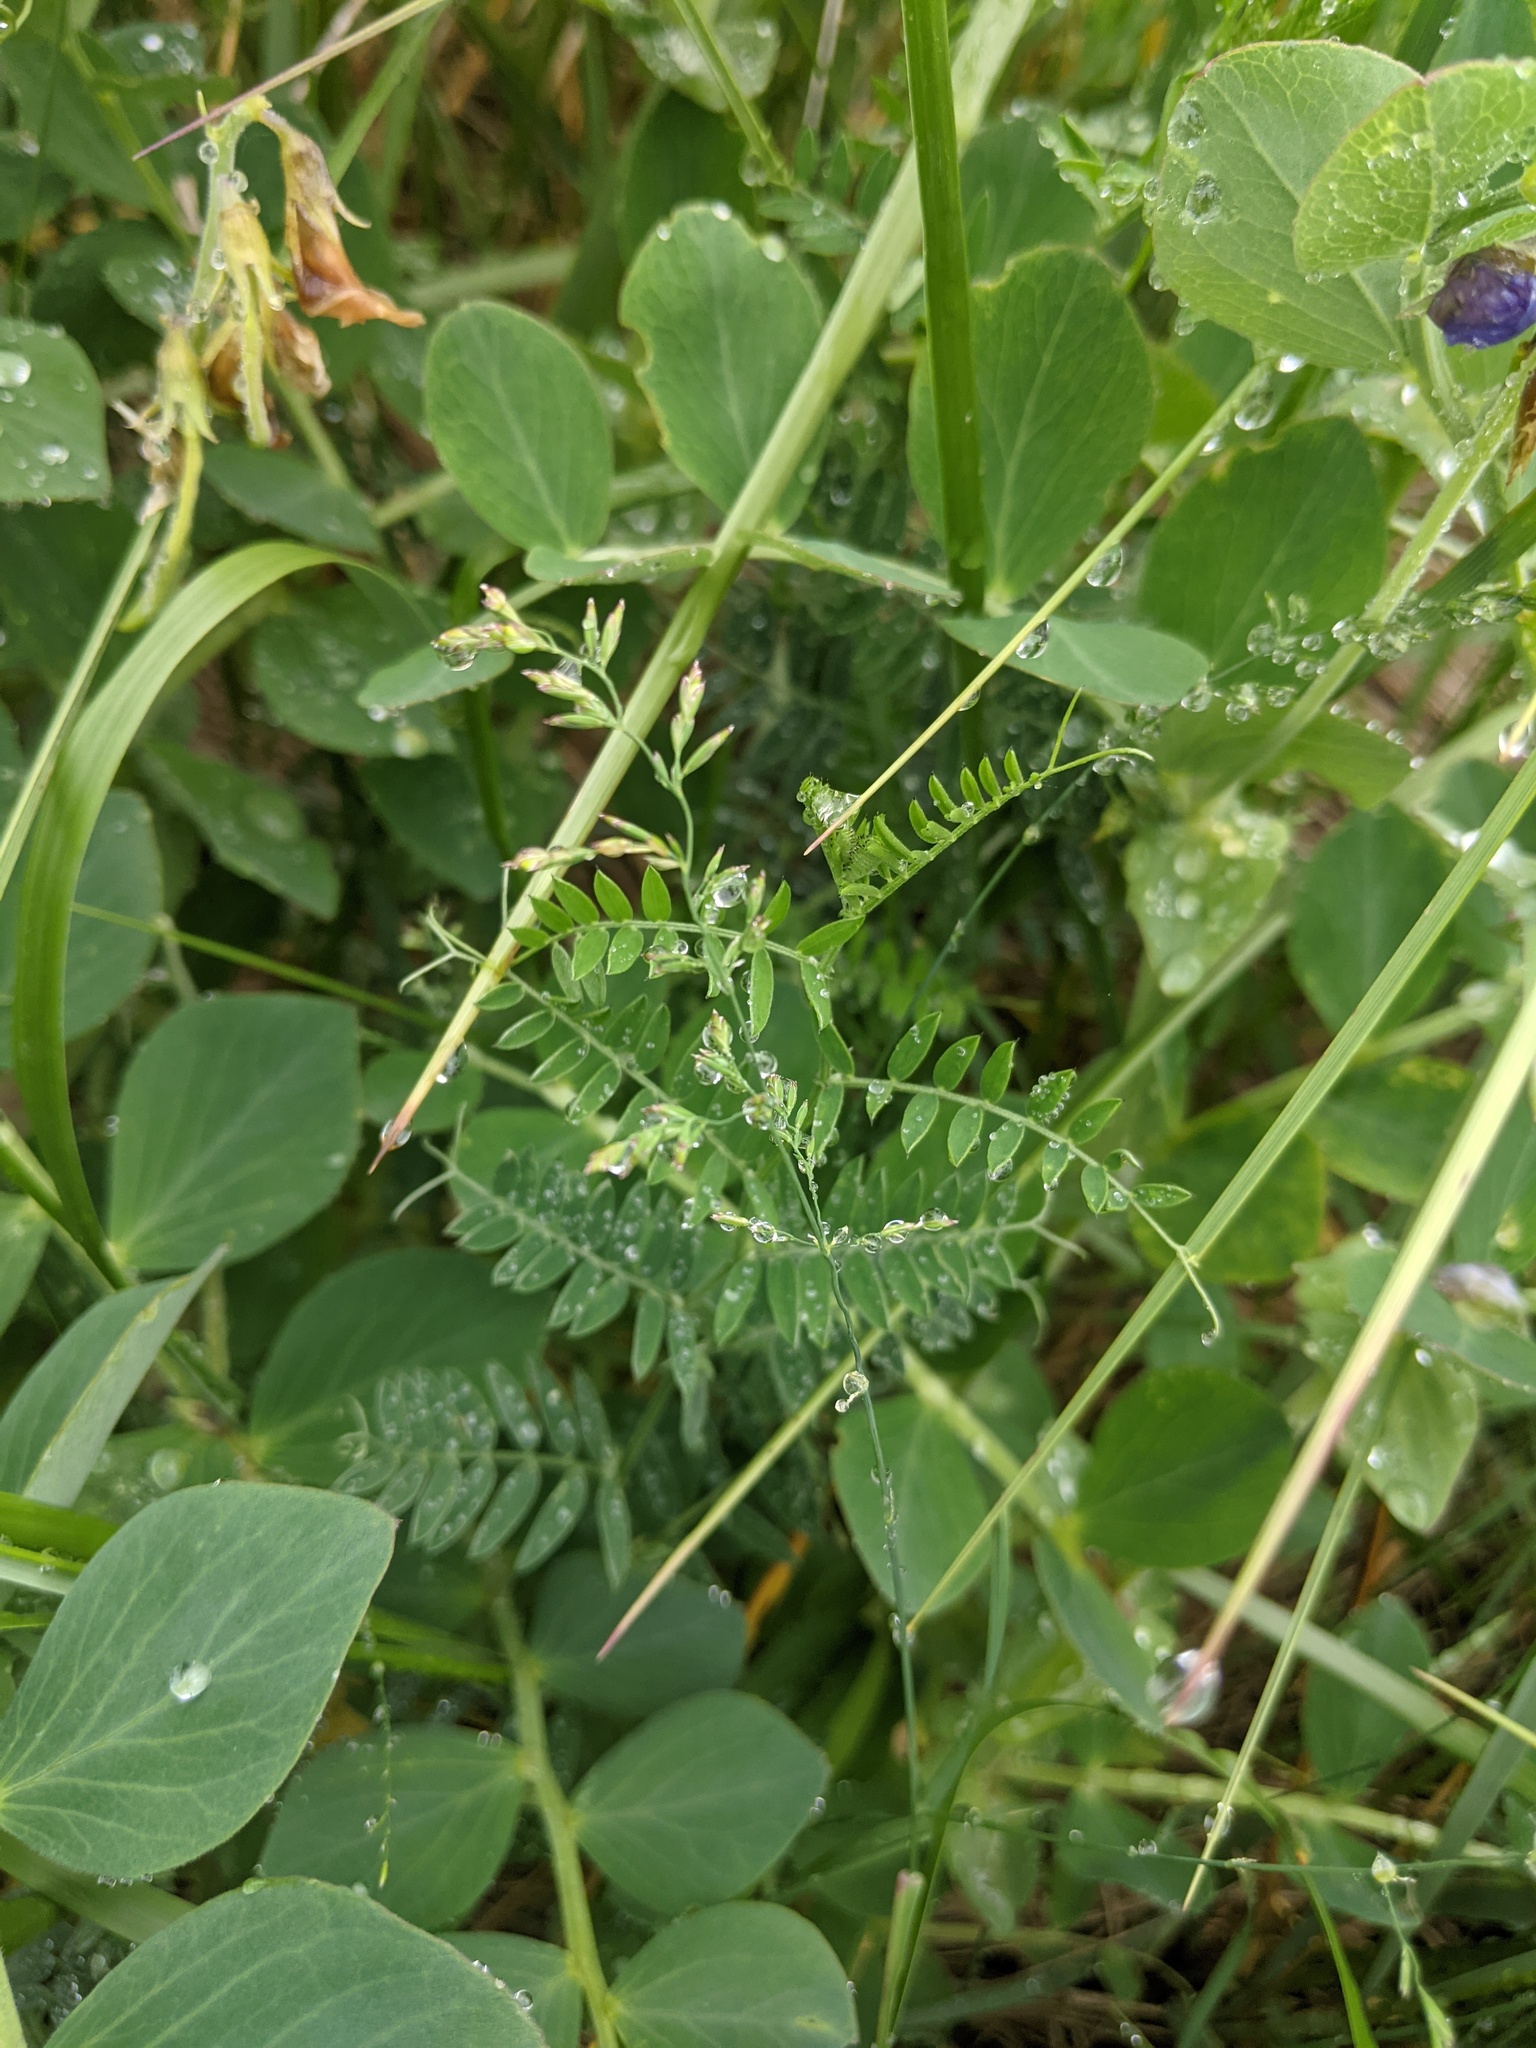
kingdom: Plantae
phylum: Tracheophyta
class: Magnoliopsida
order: Fabales
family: Fabaceae
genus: Vicia
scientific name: Vicia cracca
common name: Bird vetch
